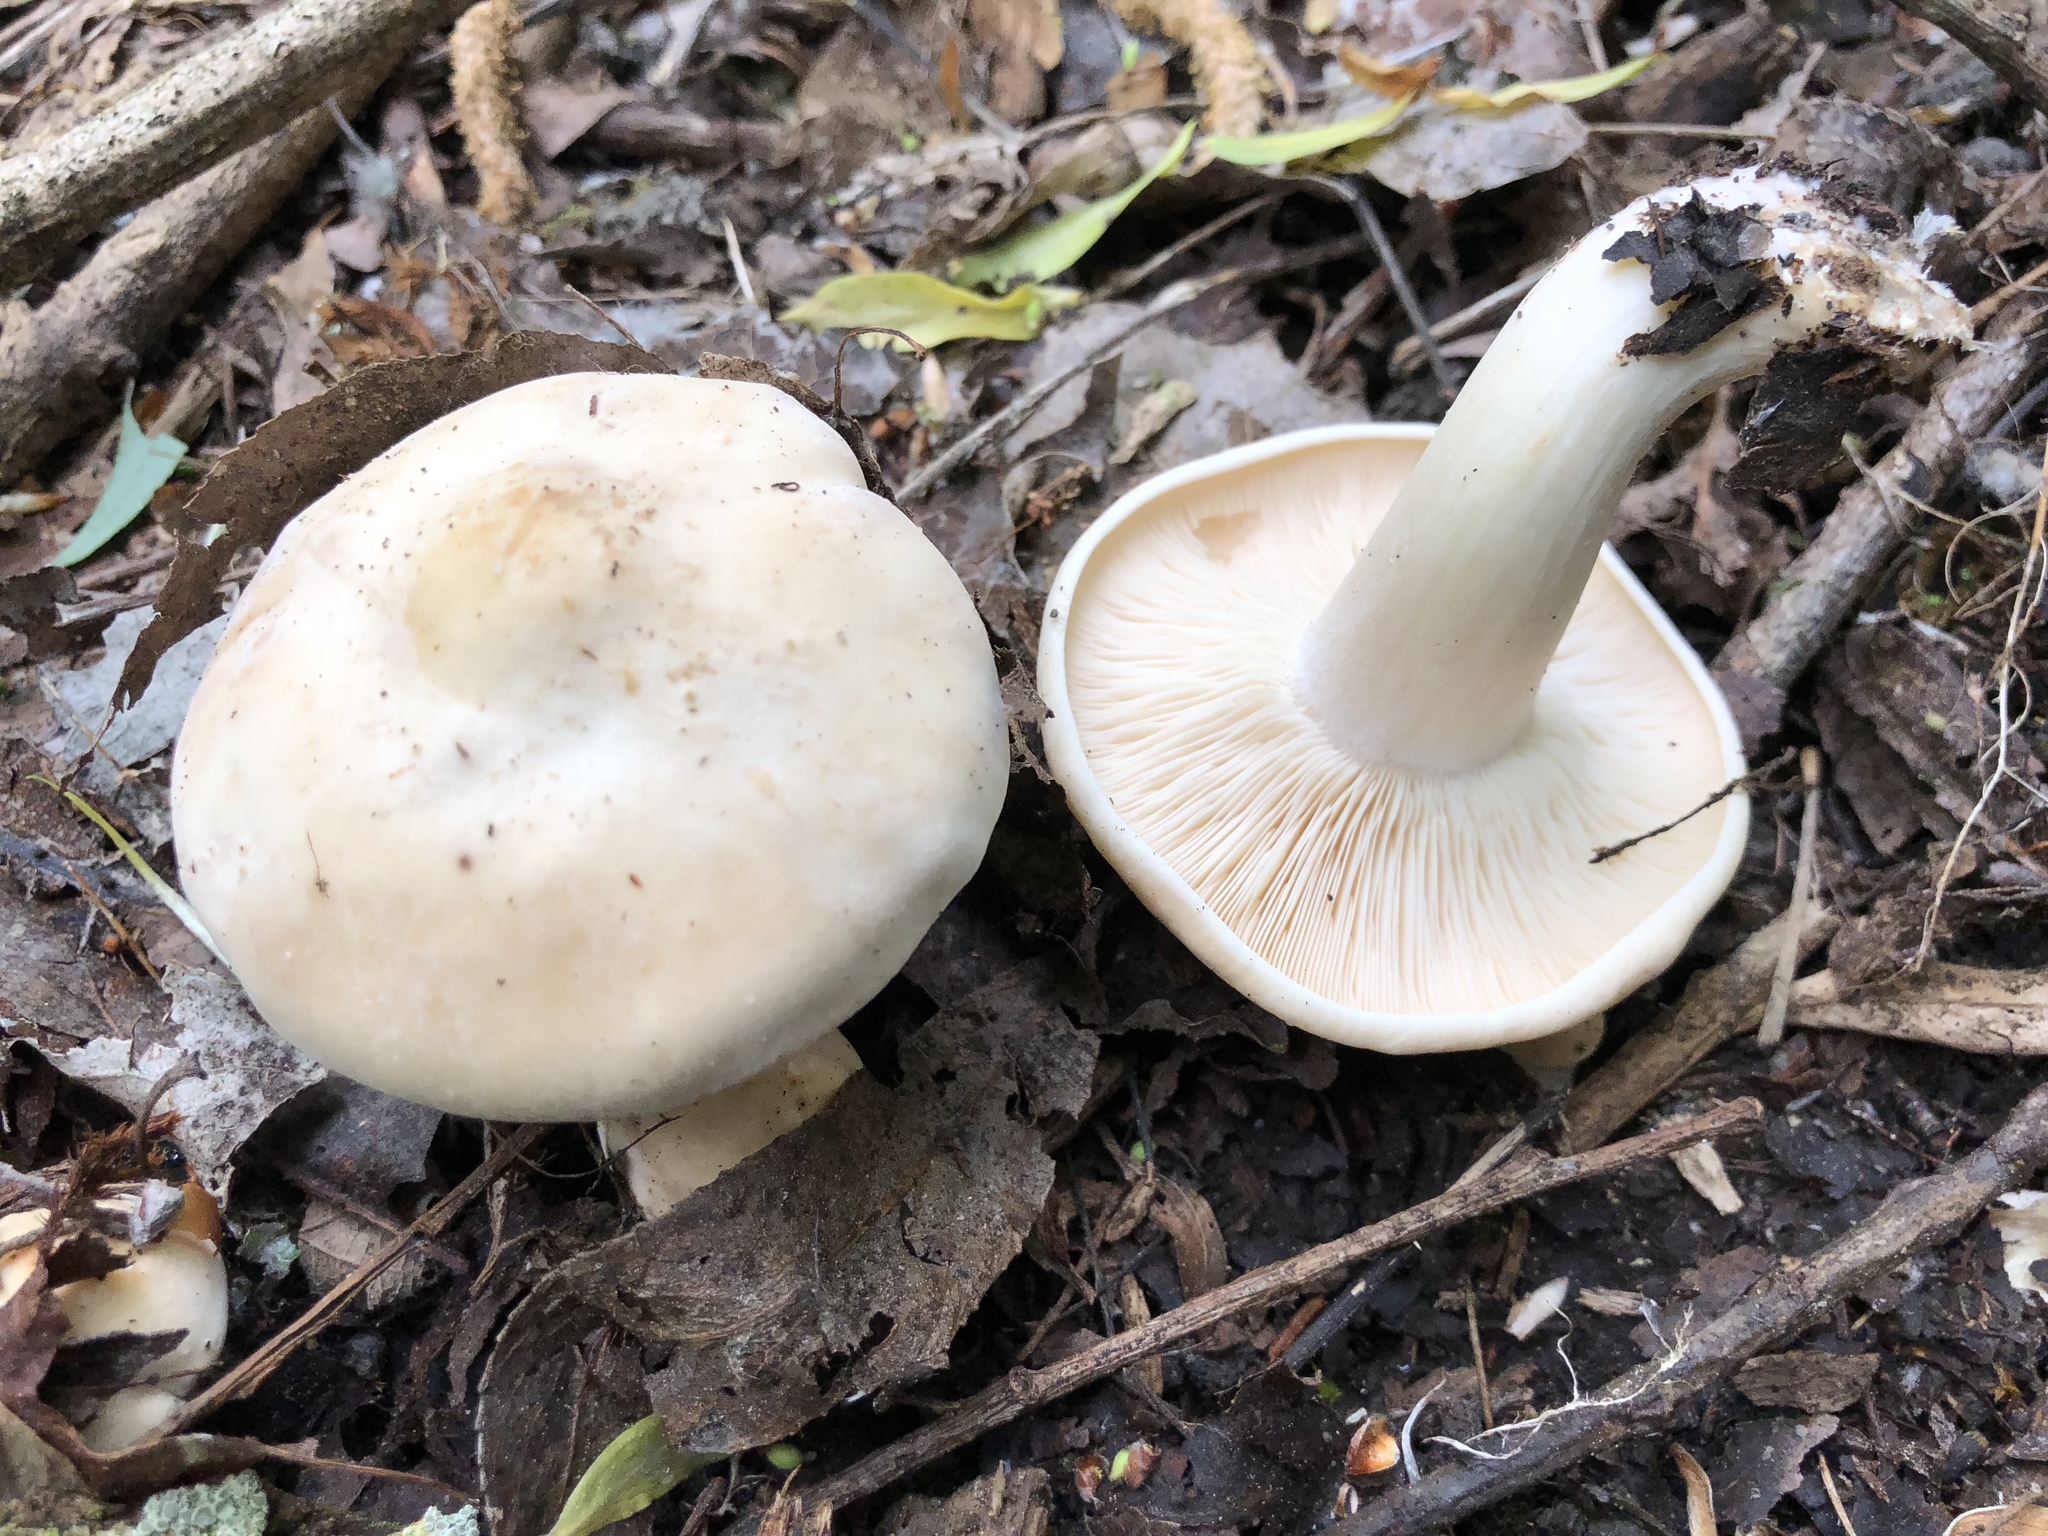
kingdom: Fungi
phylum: Basidiomycota
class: Agaricomycetes
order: Agaricales
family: Lyophyllaceae
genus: Calocybe
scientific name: Calocybe gambosa
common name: St. george's mushroom
